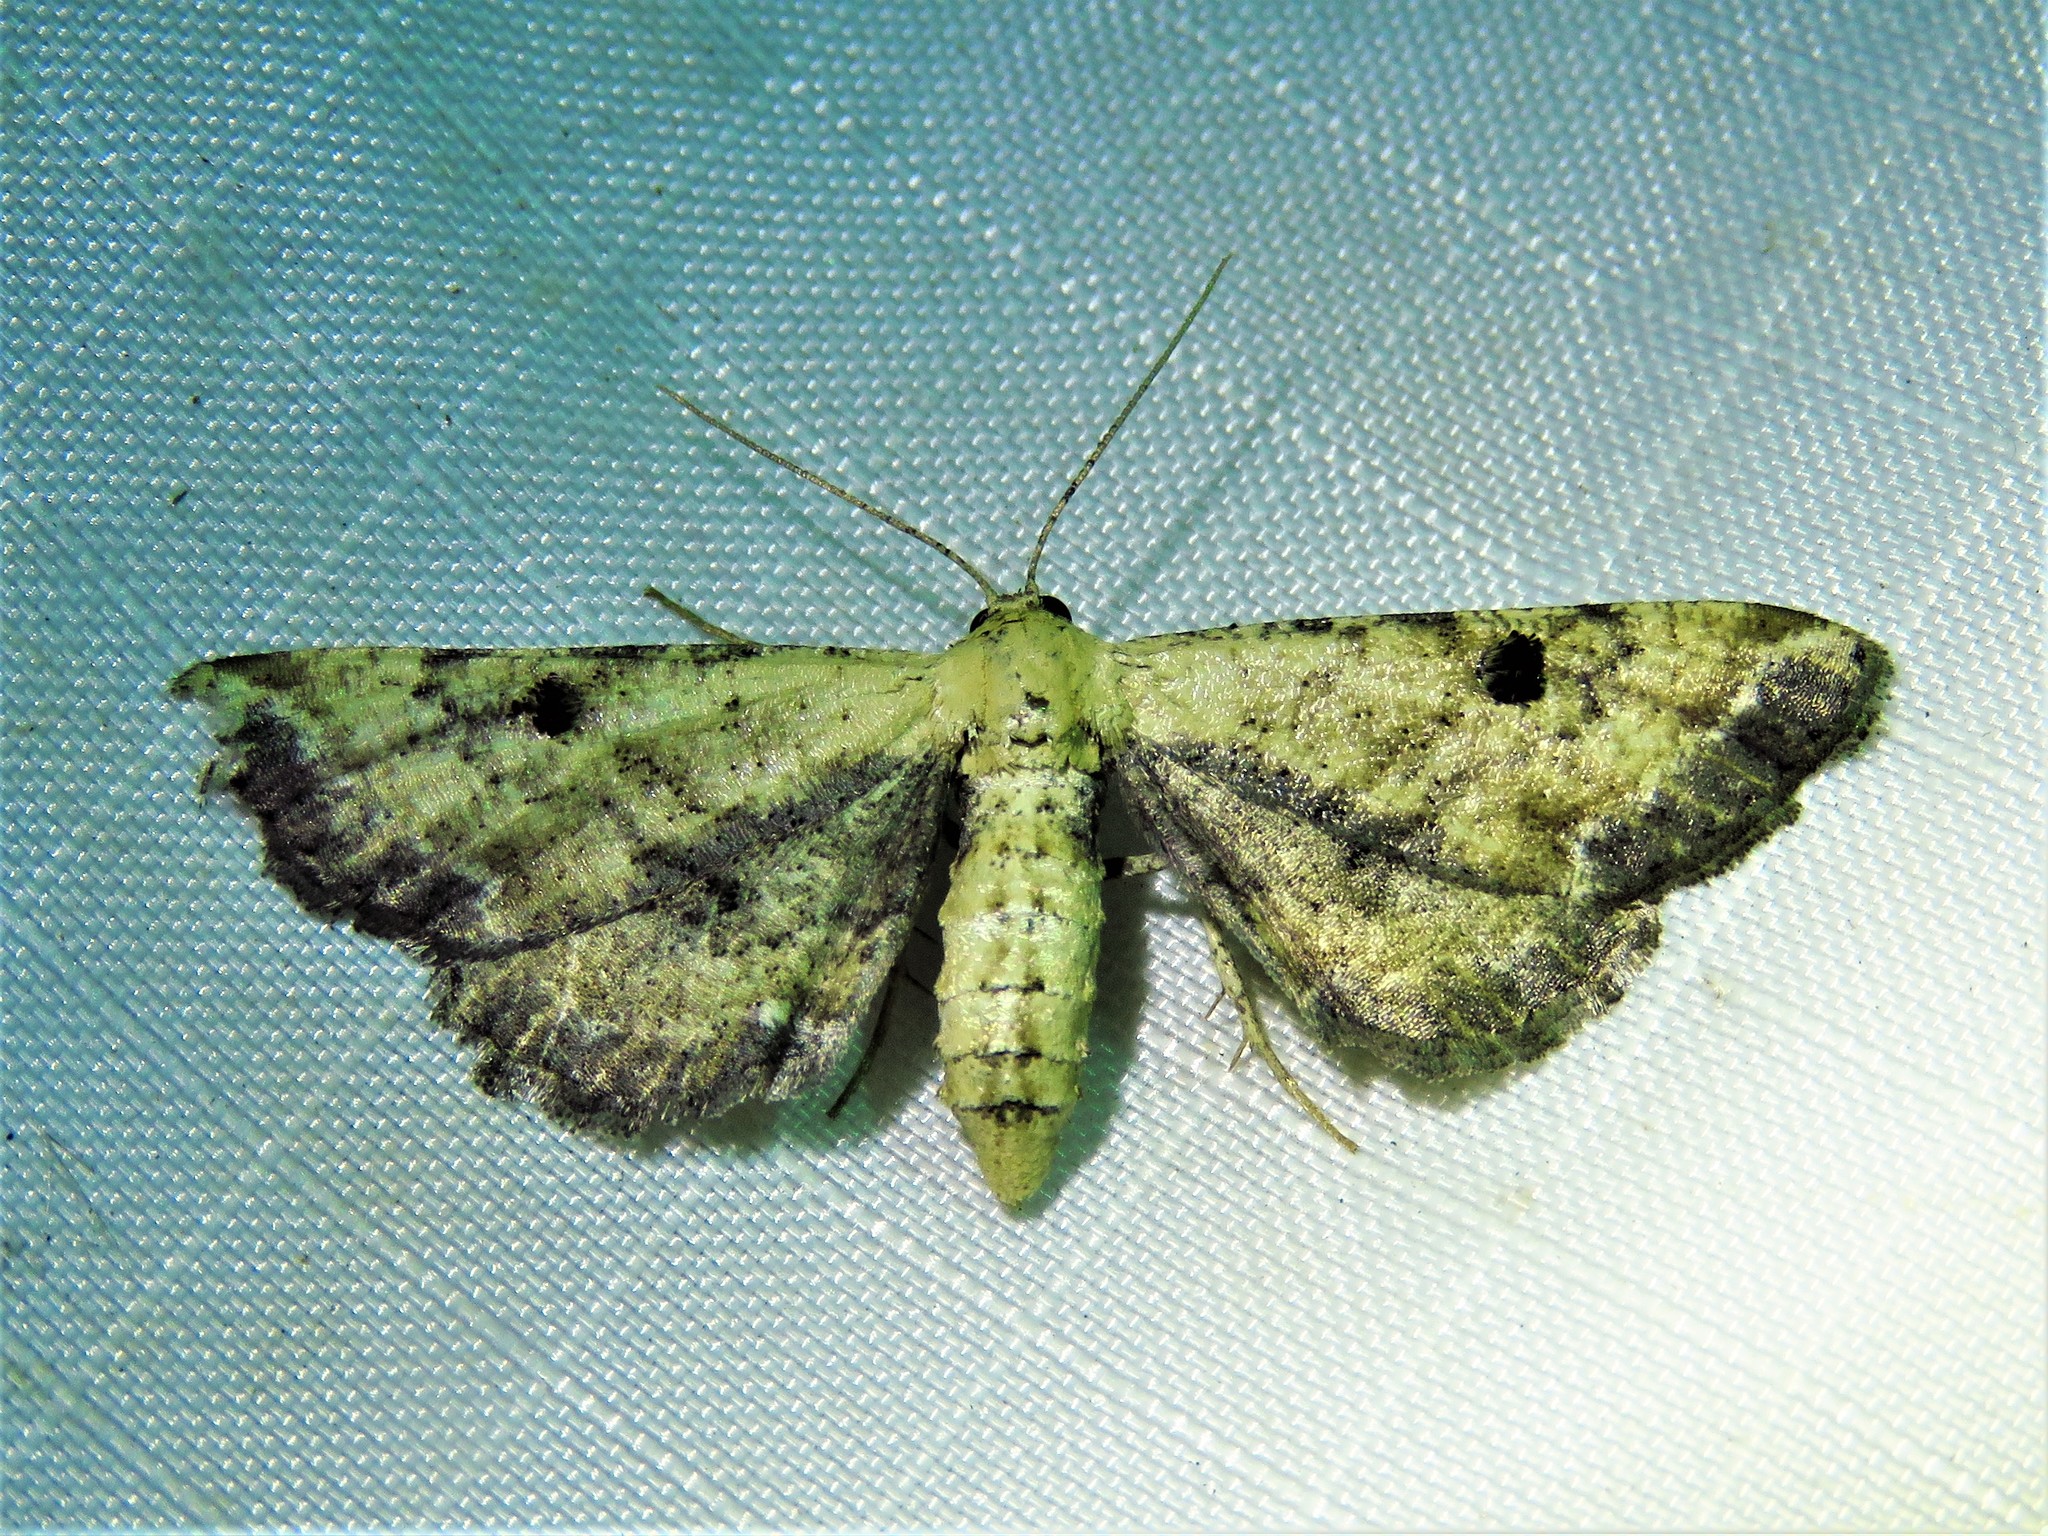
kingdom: Animalia
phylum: Arthropoda
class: Insecta
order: Lepidoptera
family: Geometridae
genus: Tornos
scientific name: Tornos scolopacinaria
